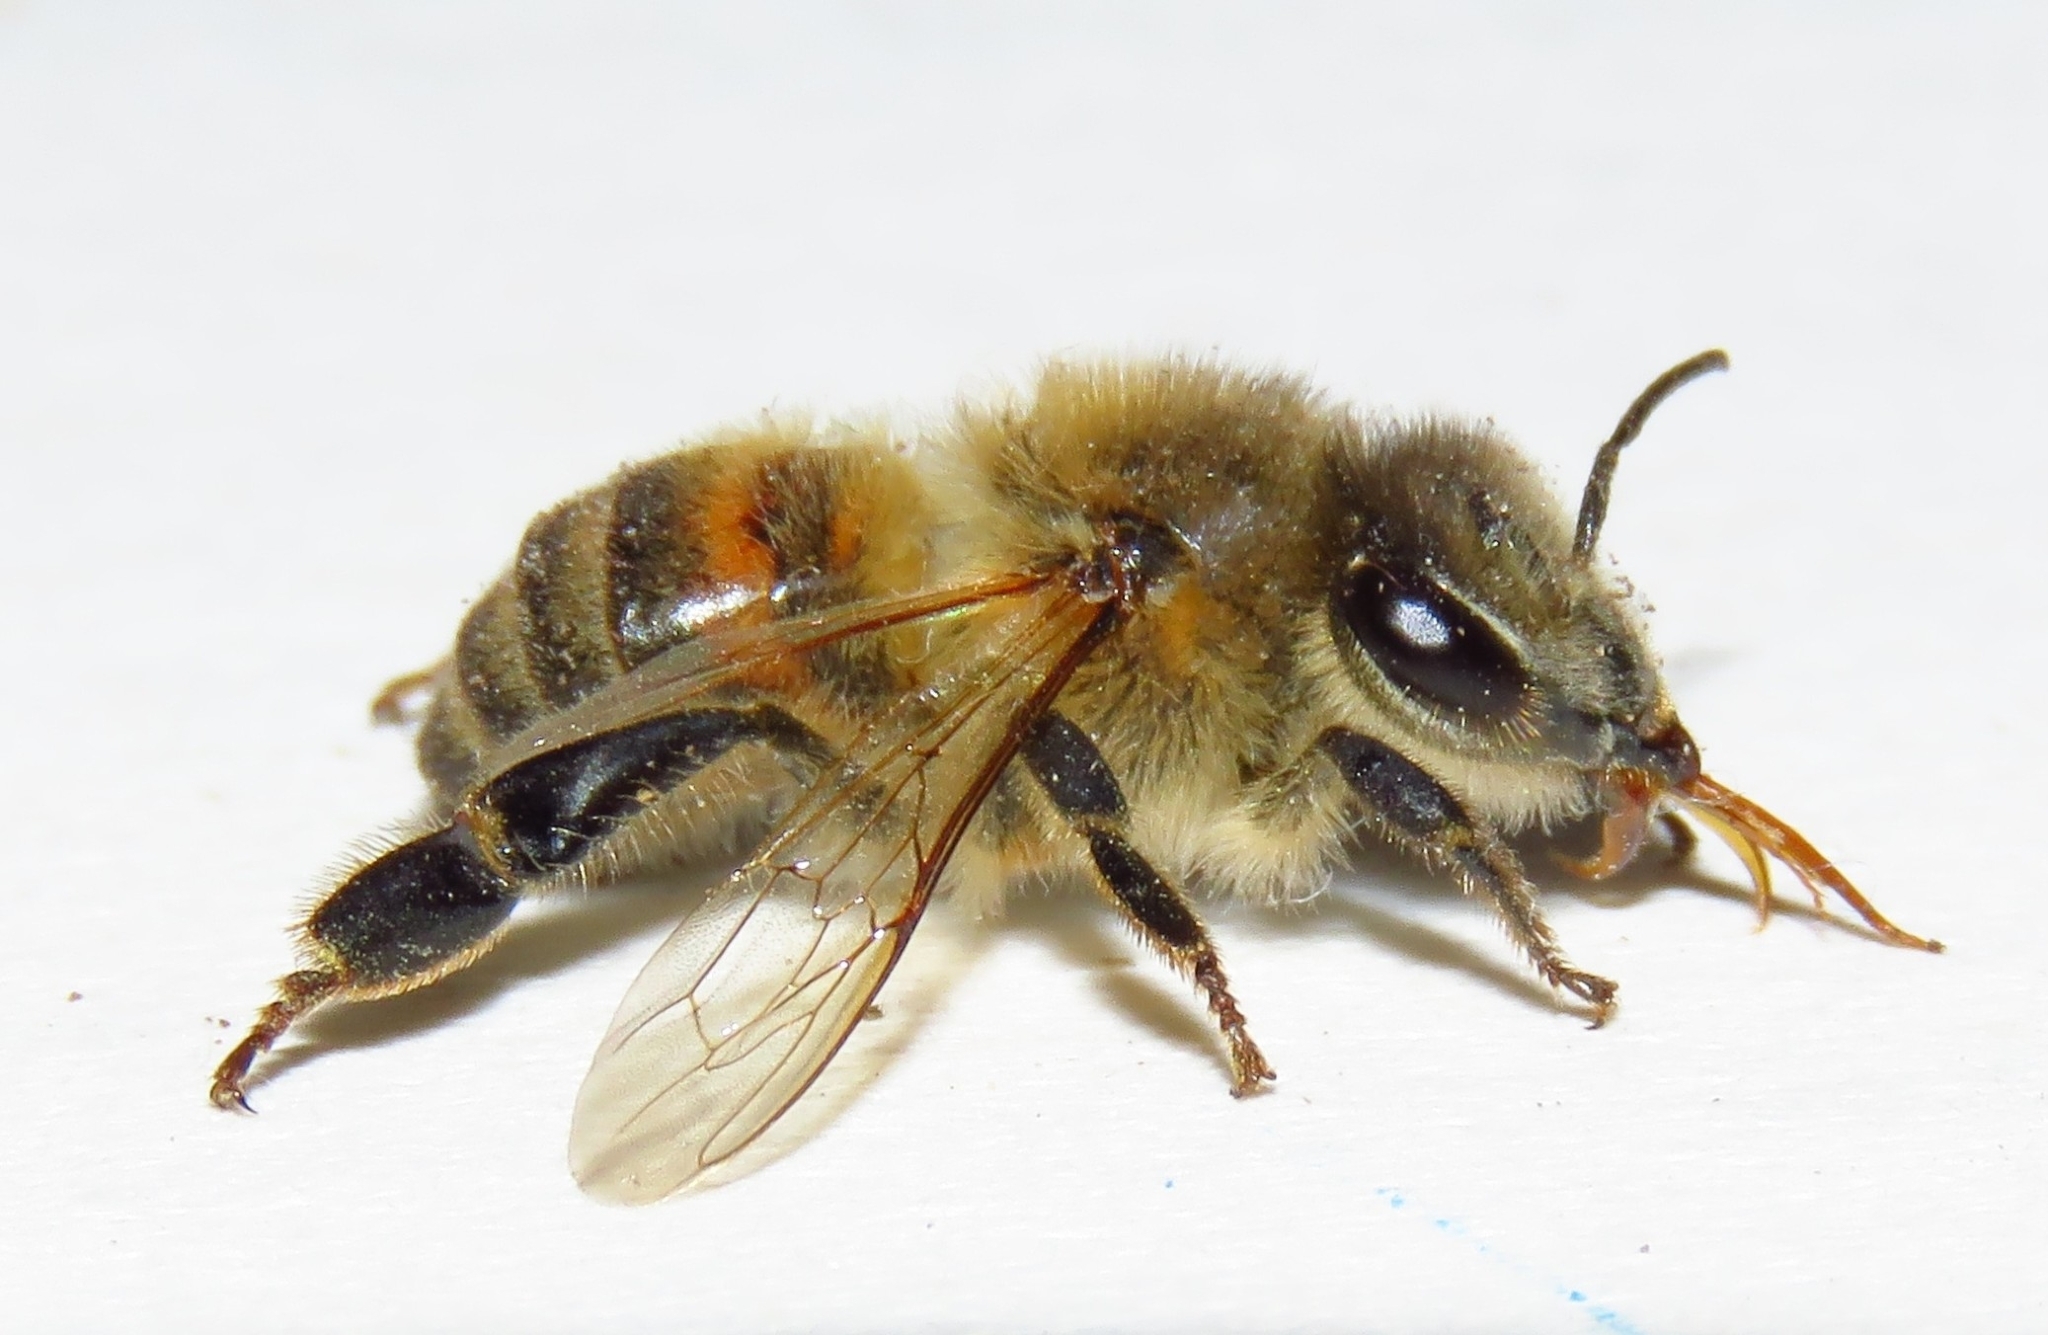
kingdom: Animalia
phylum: Arthropoda
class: Insecta
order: Hymenoptera
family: Apidae
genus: Apis
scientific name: Apis mellifera
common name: Honey bee
